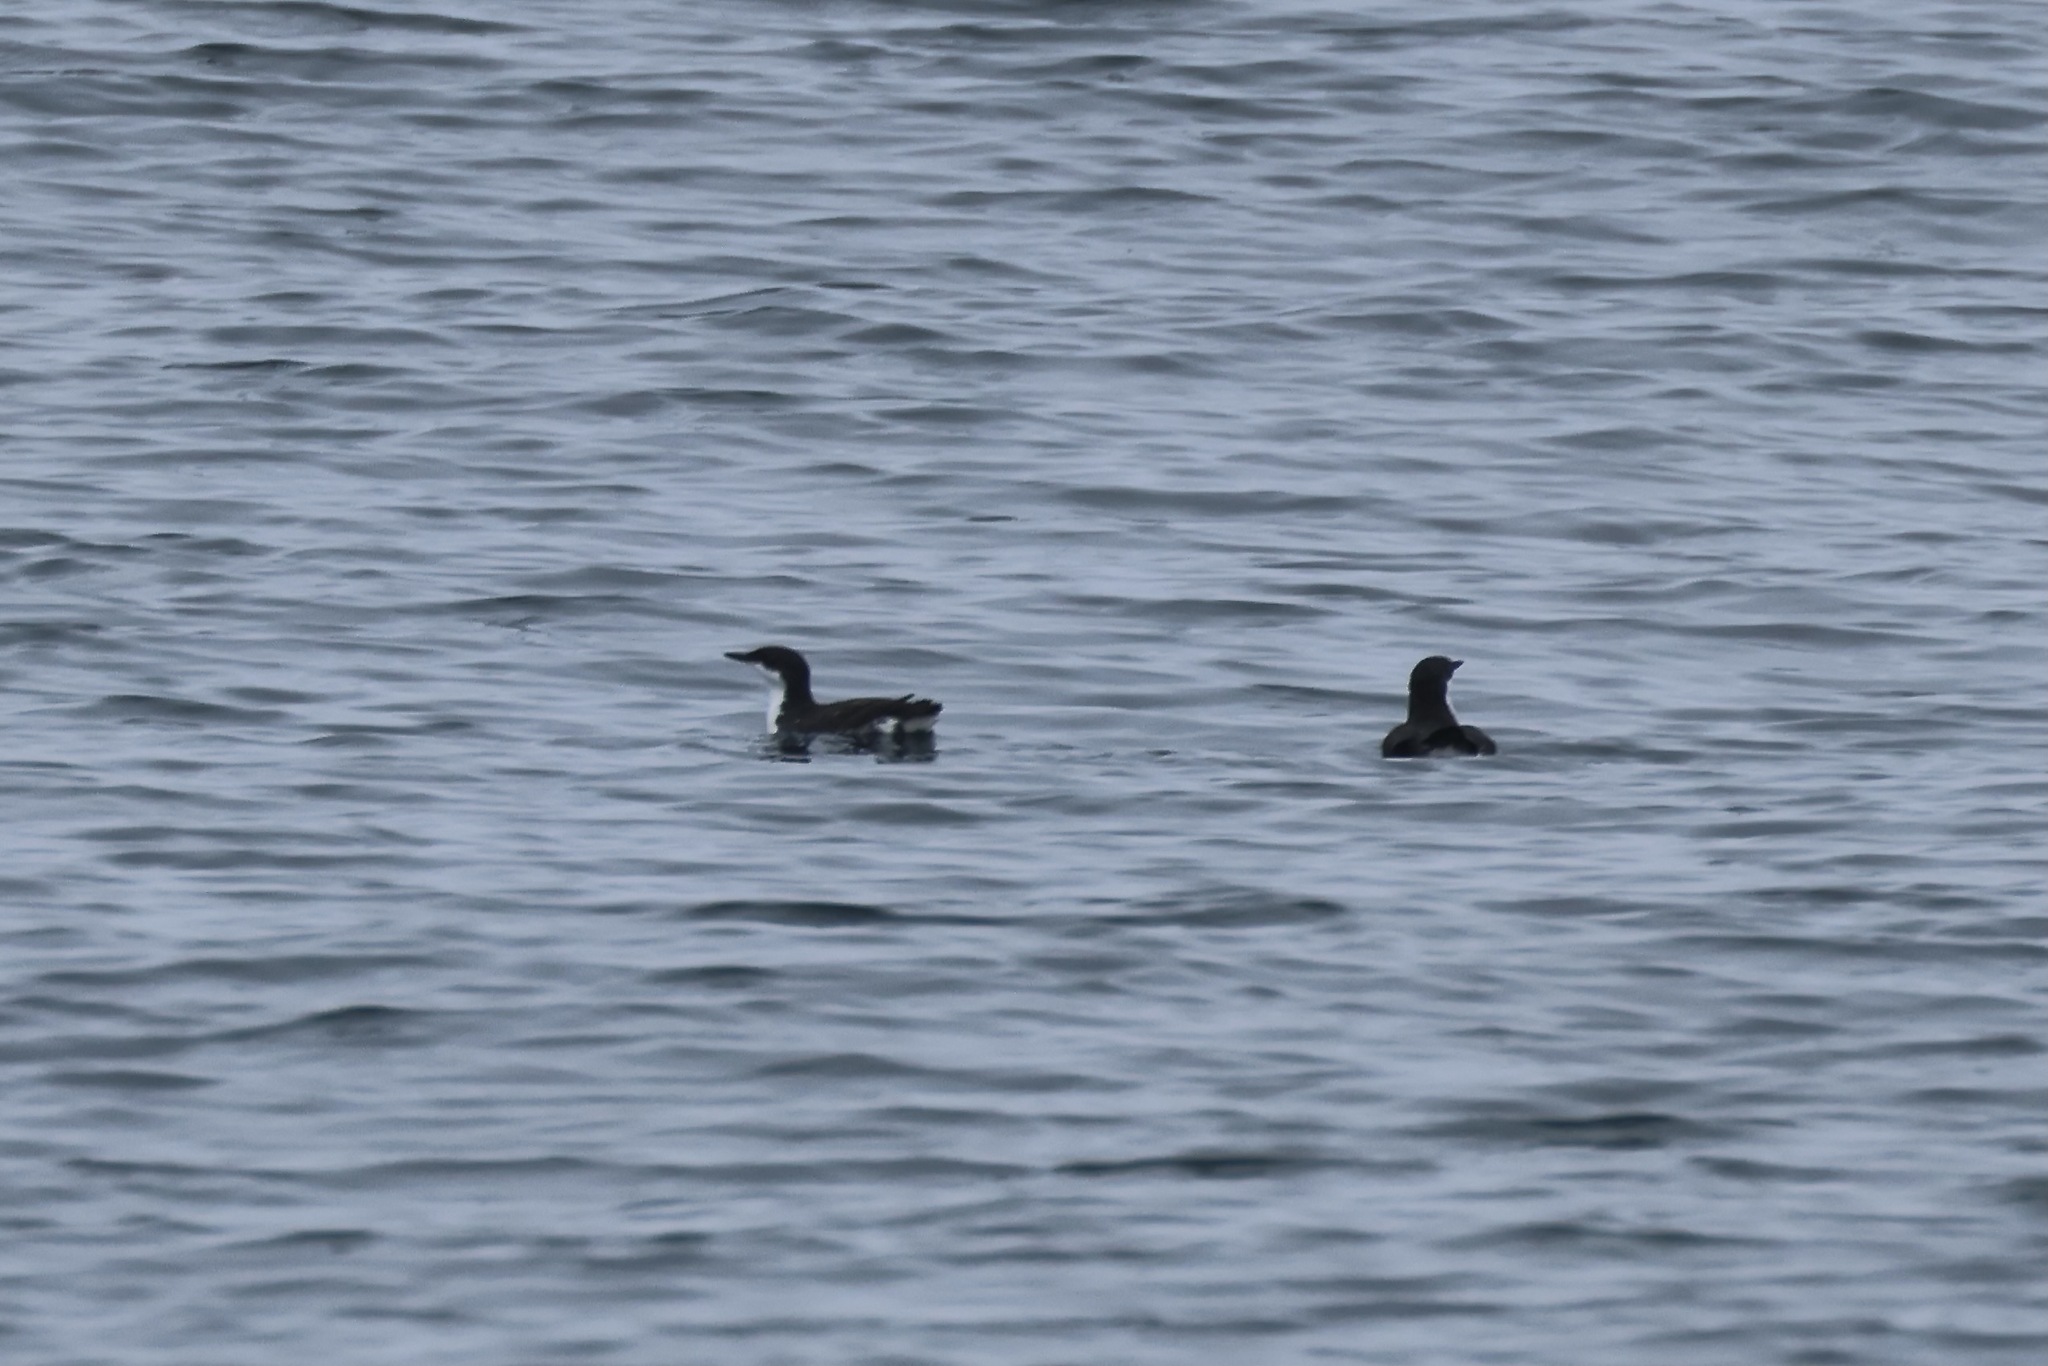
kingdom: Animalia
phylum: Chordata
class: Aves
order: Charadriiformes
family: Alcidae
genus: Synthliboramphus
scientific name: Synthliboramphus scrippsi
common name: Scripps's murrelet
